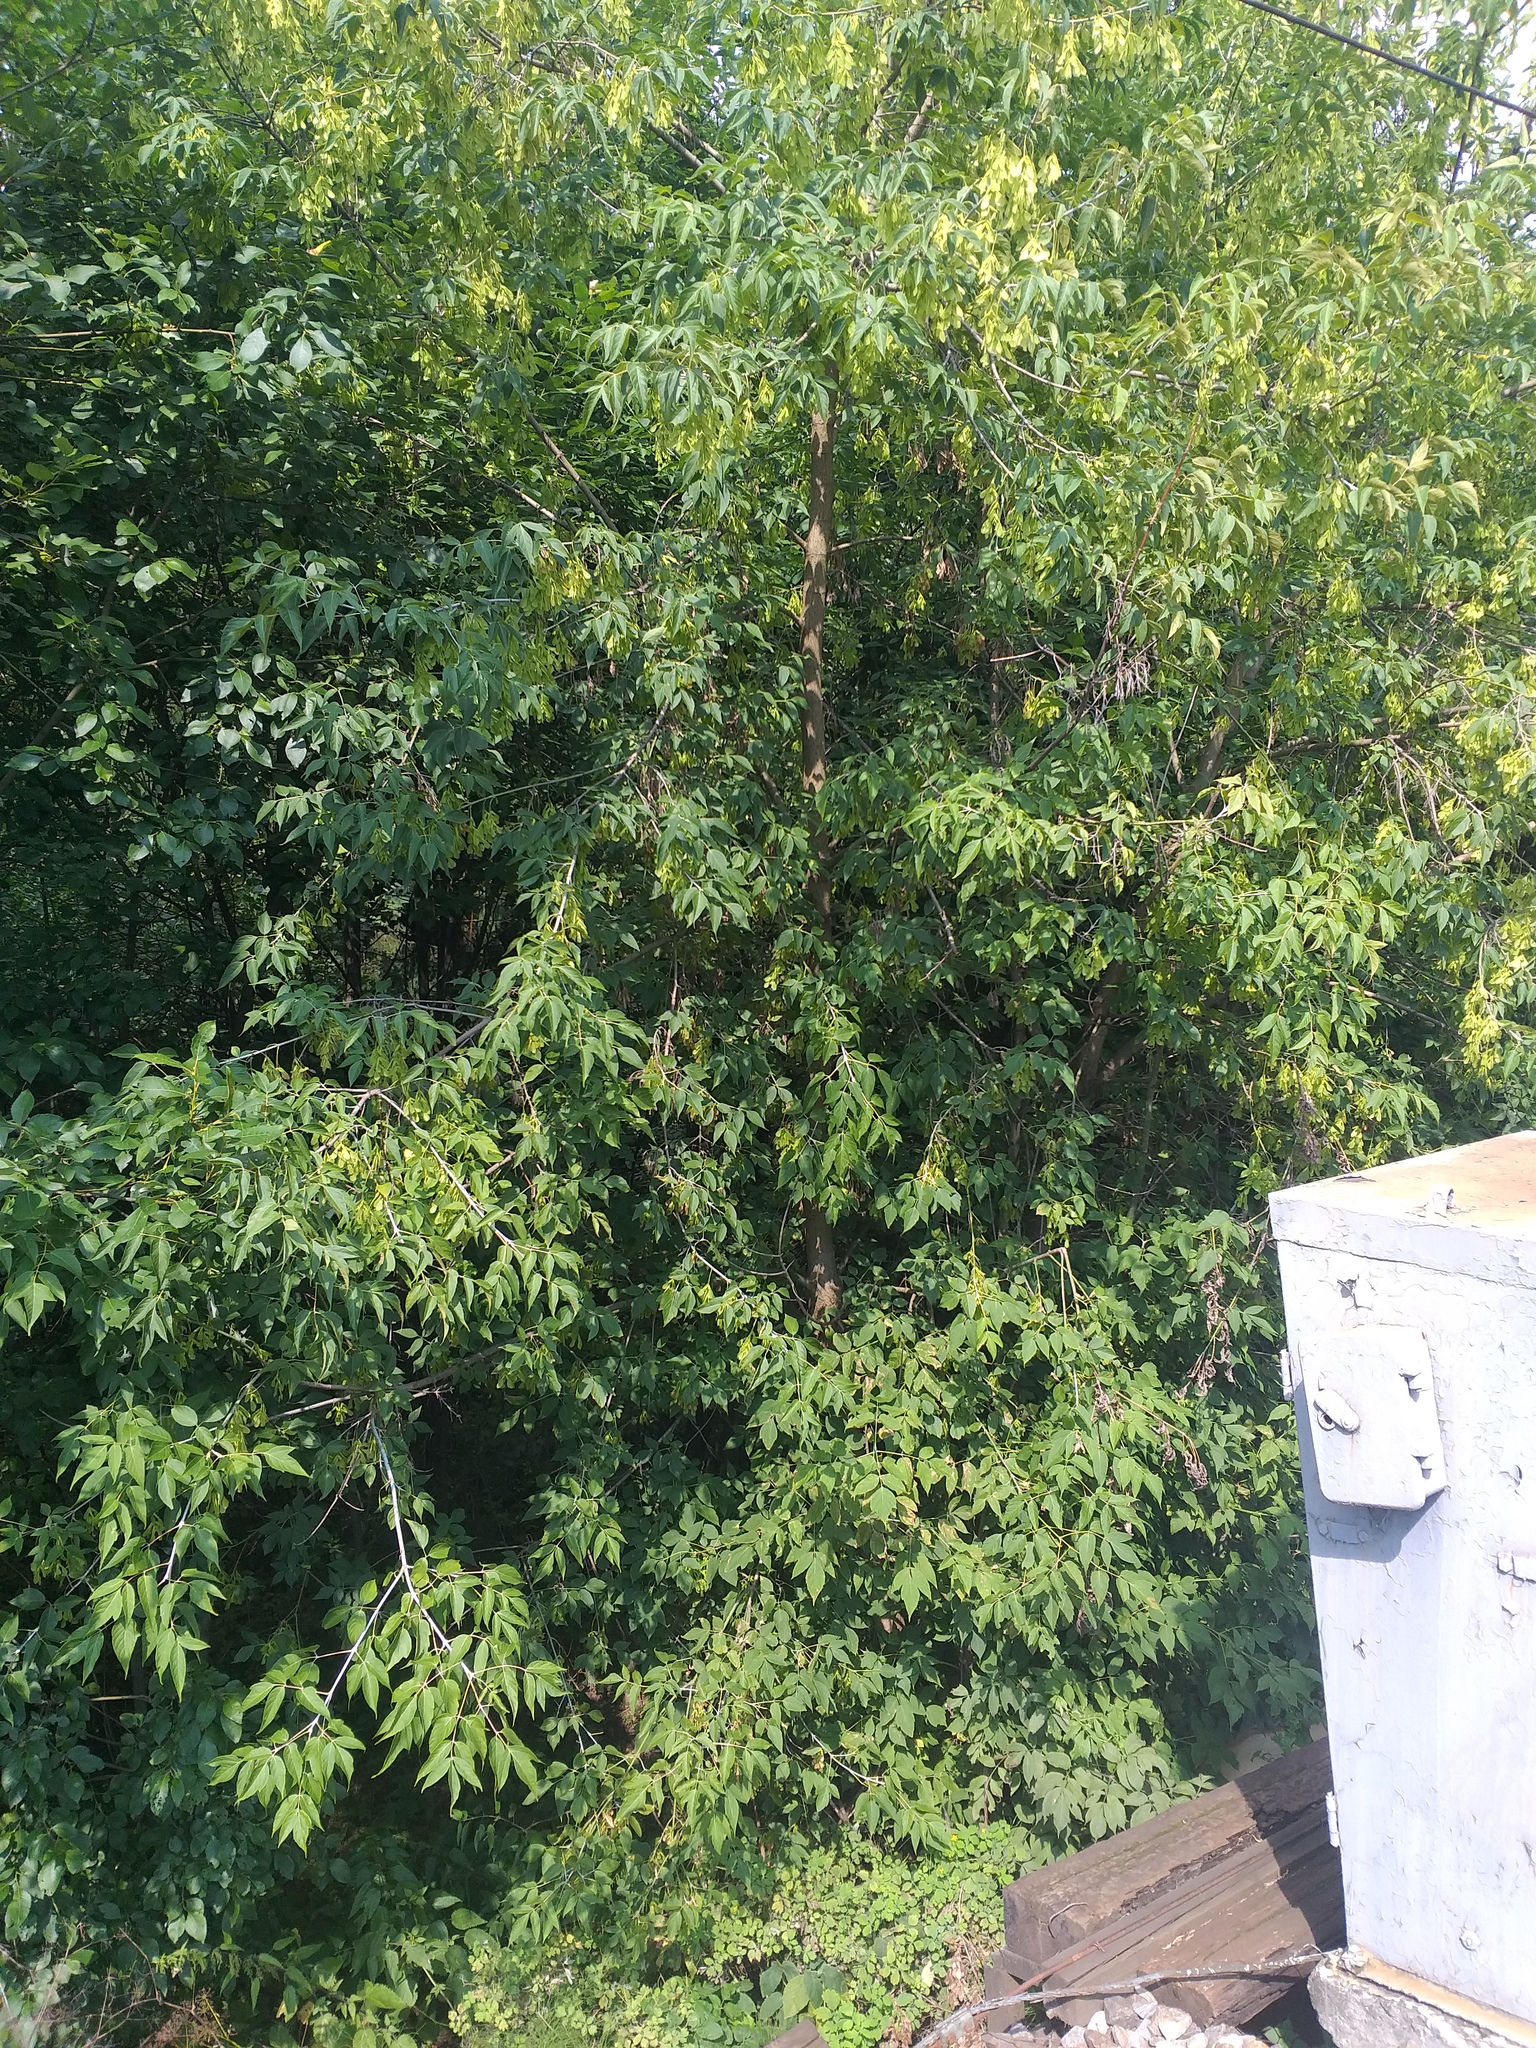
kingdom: Plantae
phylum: Tracheophyta
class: Magnoliopsida
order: Sapindales
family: Sapindaceae
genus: Acer
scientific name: Acer negundo
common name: Ashleaf maple
